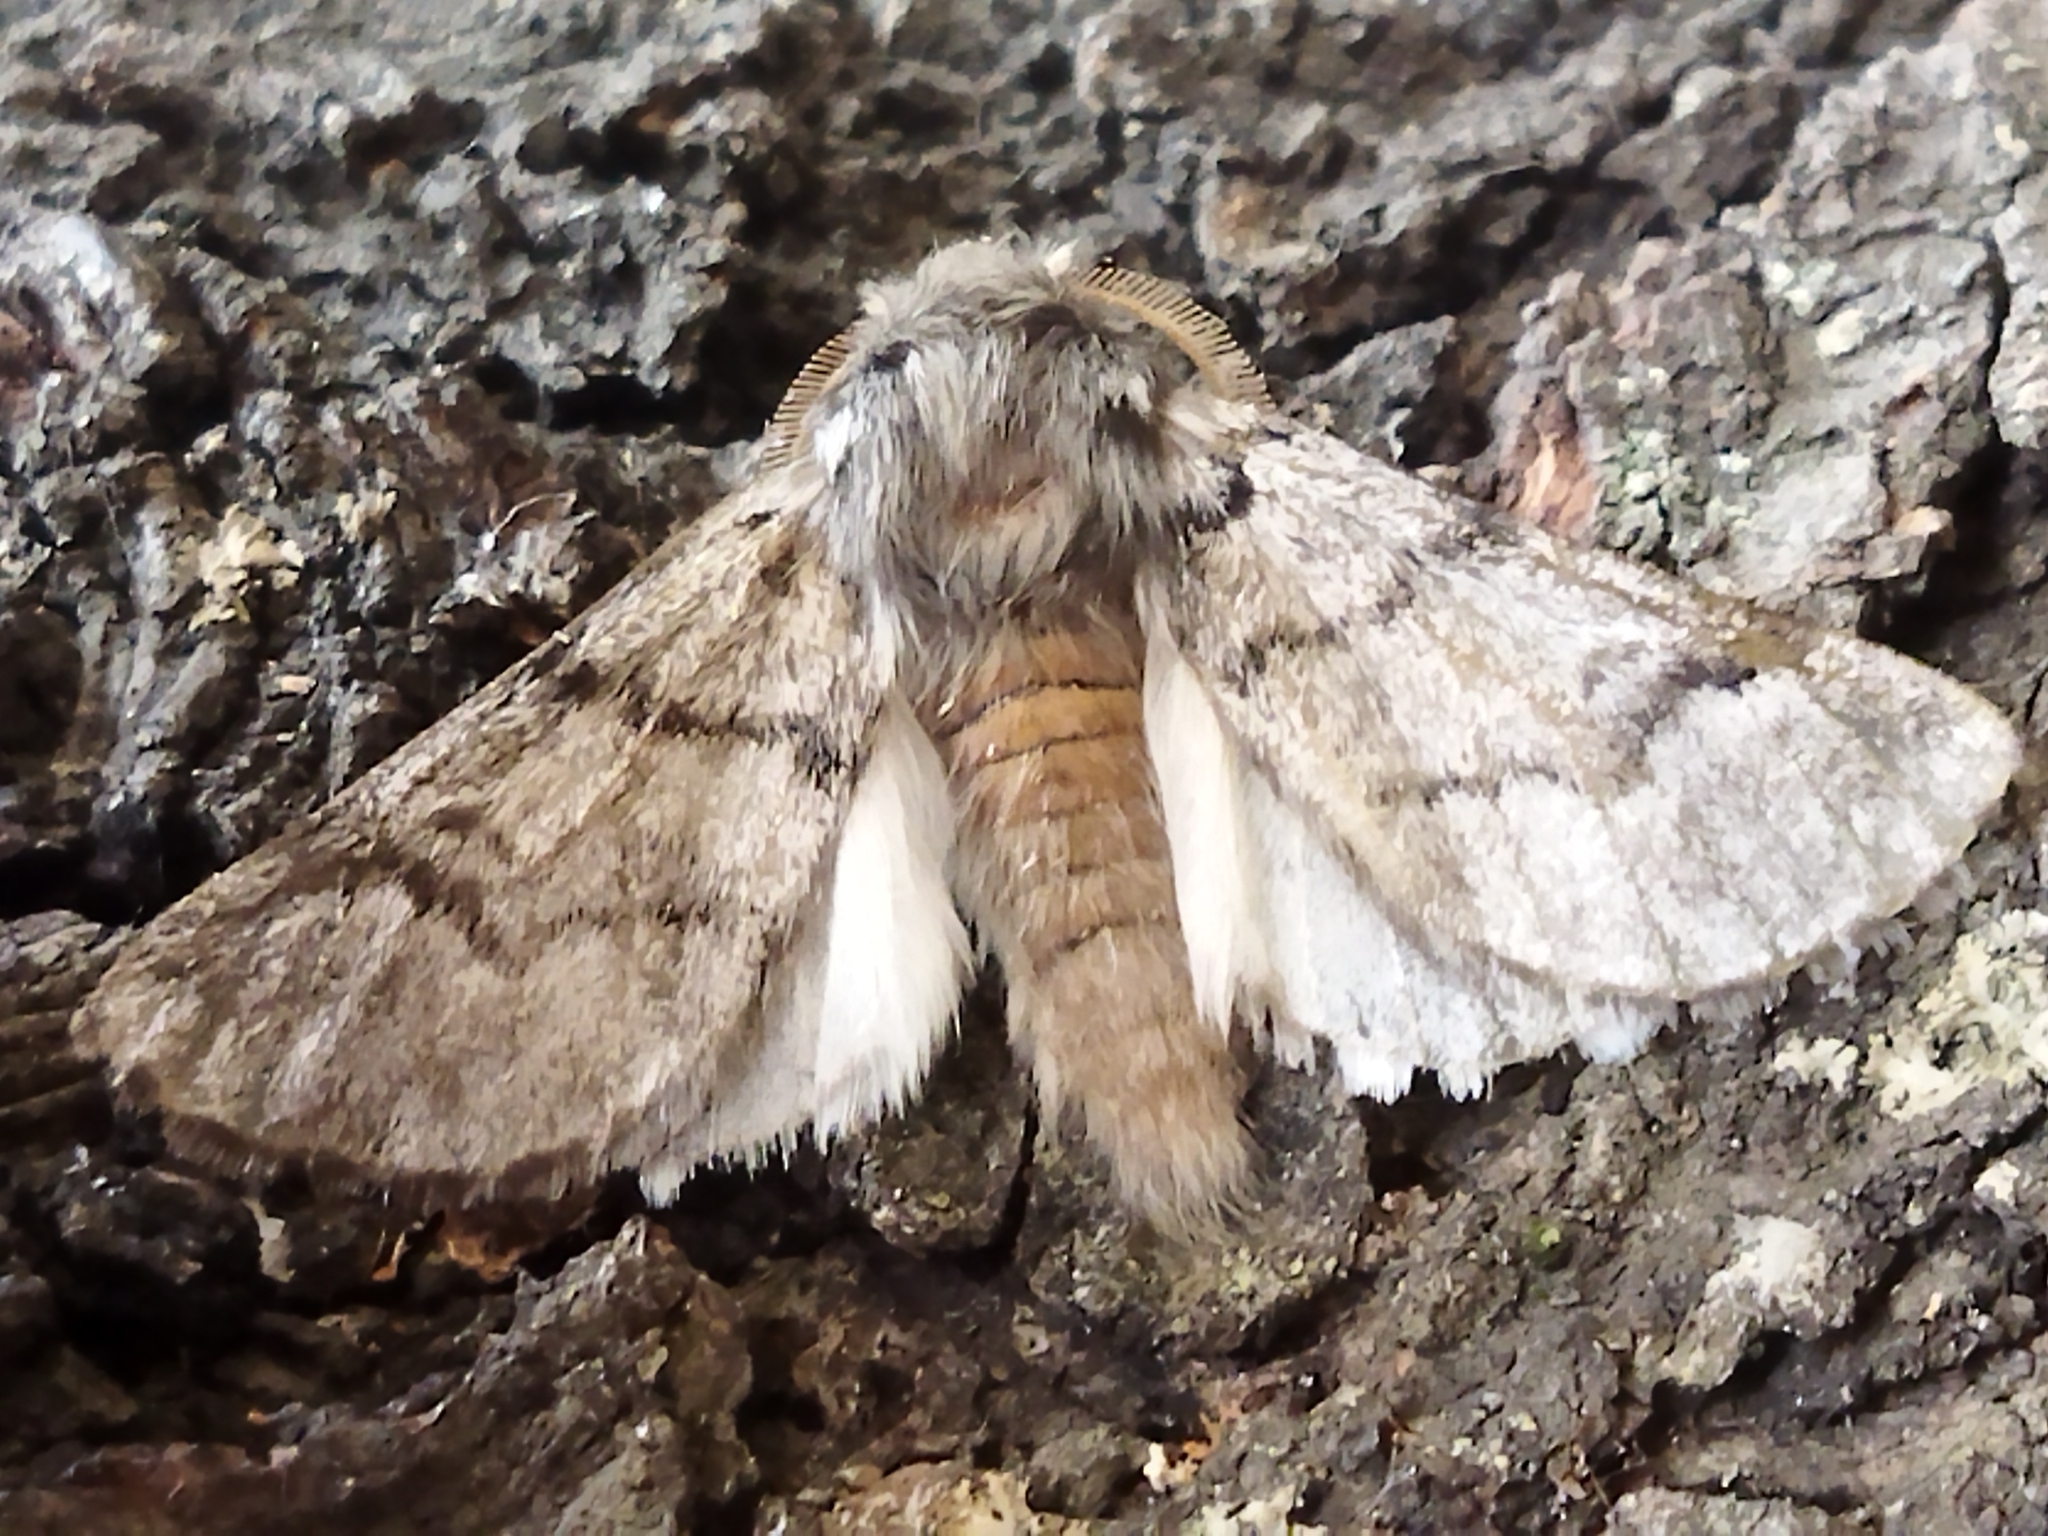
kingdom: Animalia
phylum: Arthropoda
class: Insecta
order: Lepidoptera
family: Notodontidae
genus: Thaumetopoea
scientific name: Thaumetopoea pityocampa
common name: Pine processionary
